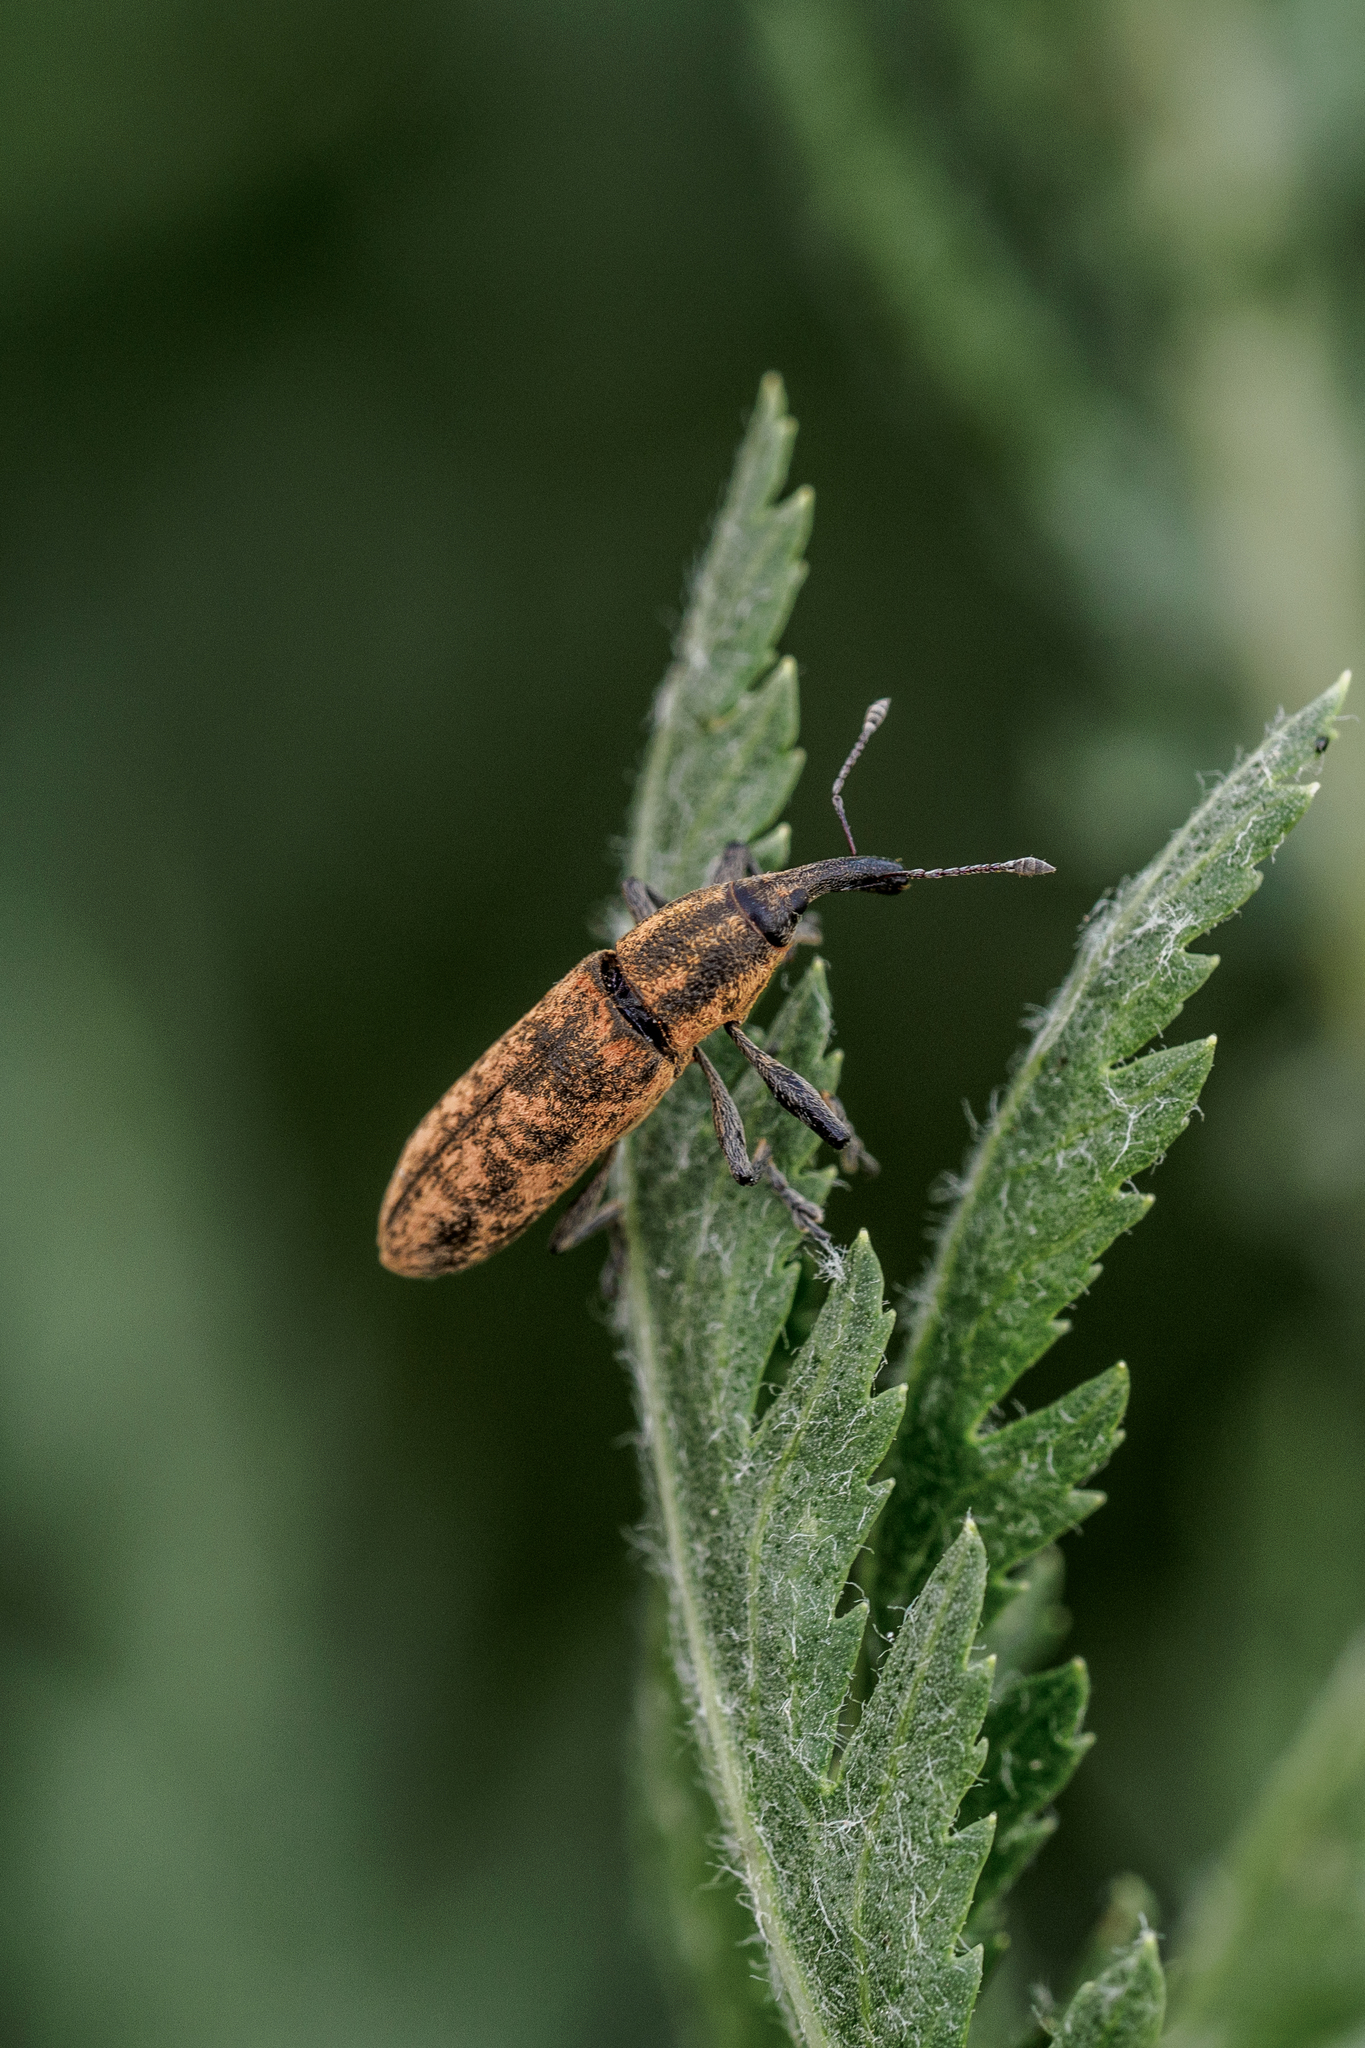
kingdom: Animalia
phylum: Arthropoda
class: Insecta
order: Coleoptera
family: Curculionidae
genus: Lixus
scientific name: Lixus fasciculatus
